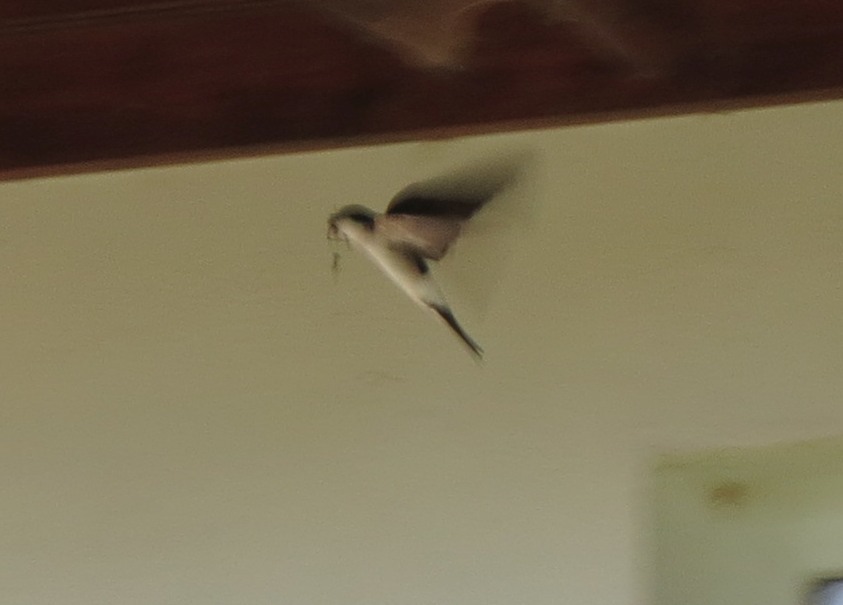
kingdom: Animalia
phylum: Chordata
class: Aves
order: Passeriformes
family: Hirundinidae
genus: Delichon
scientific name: Delichon urbicum
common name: Common house martin
